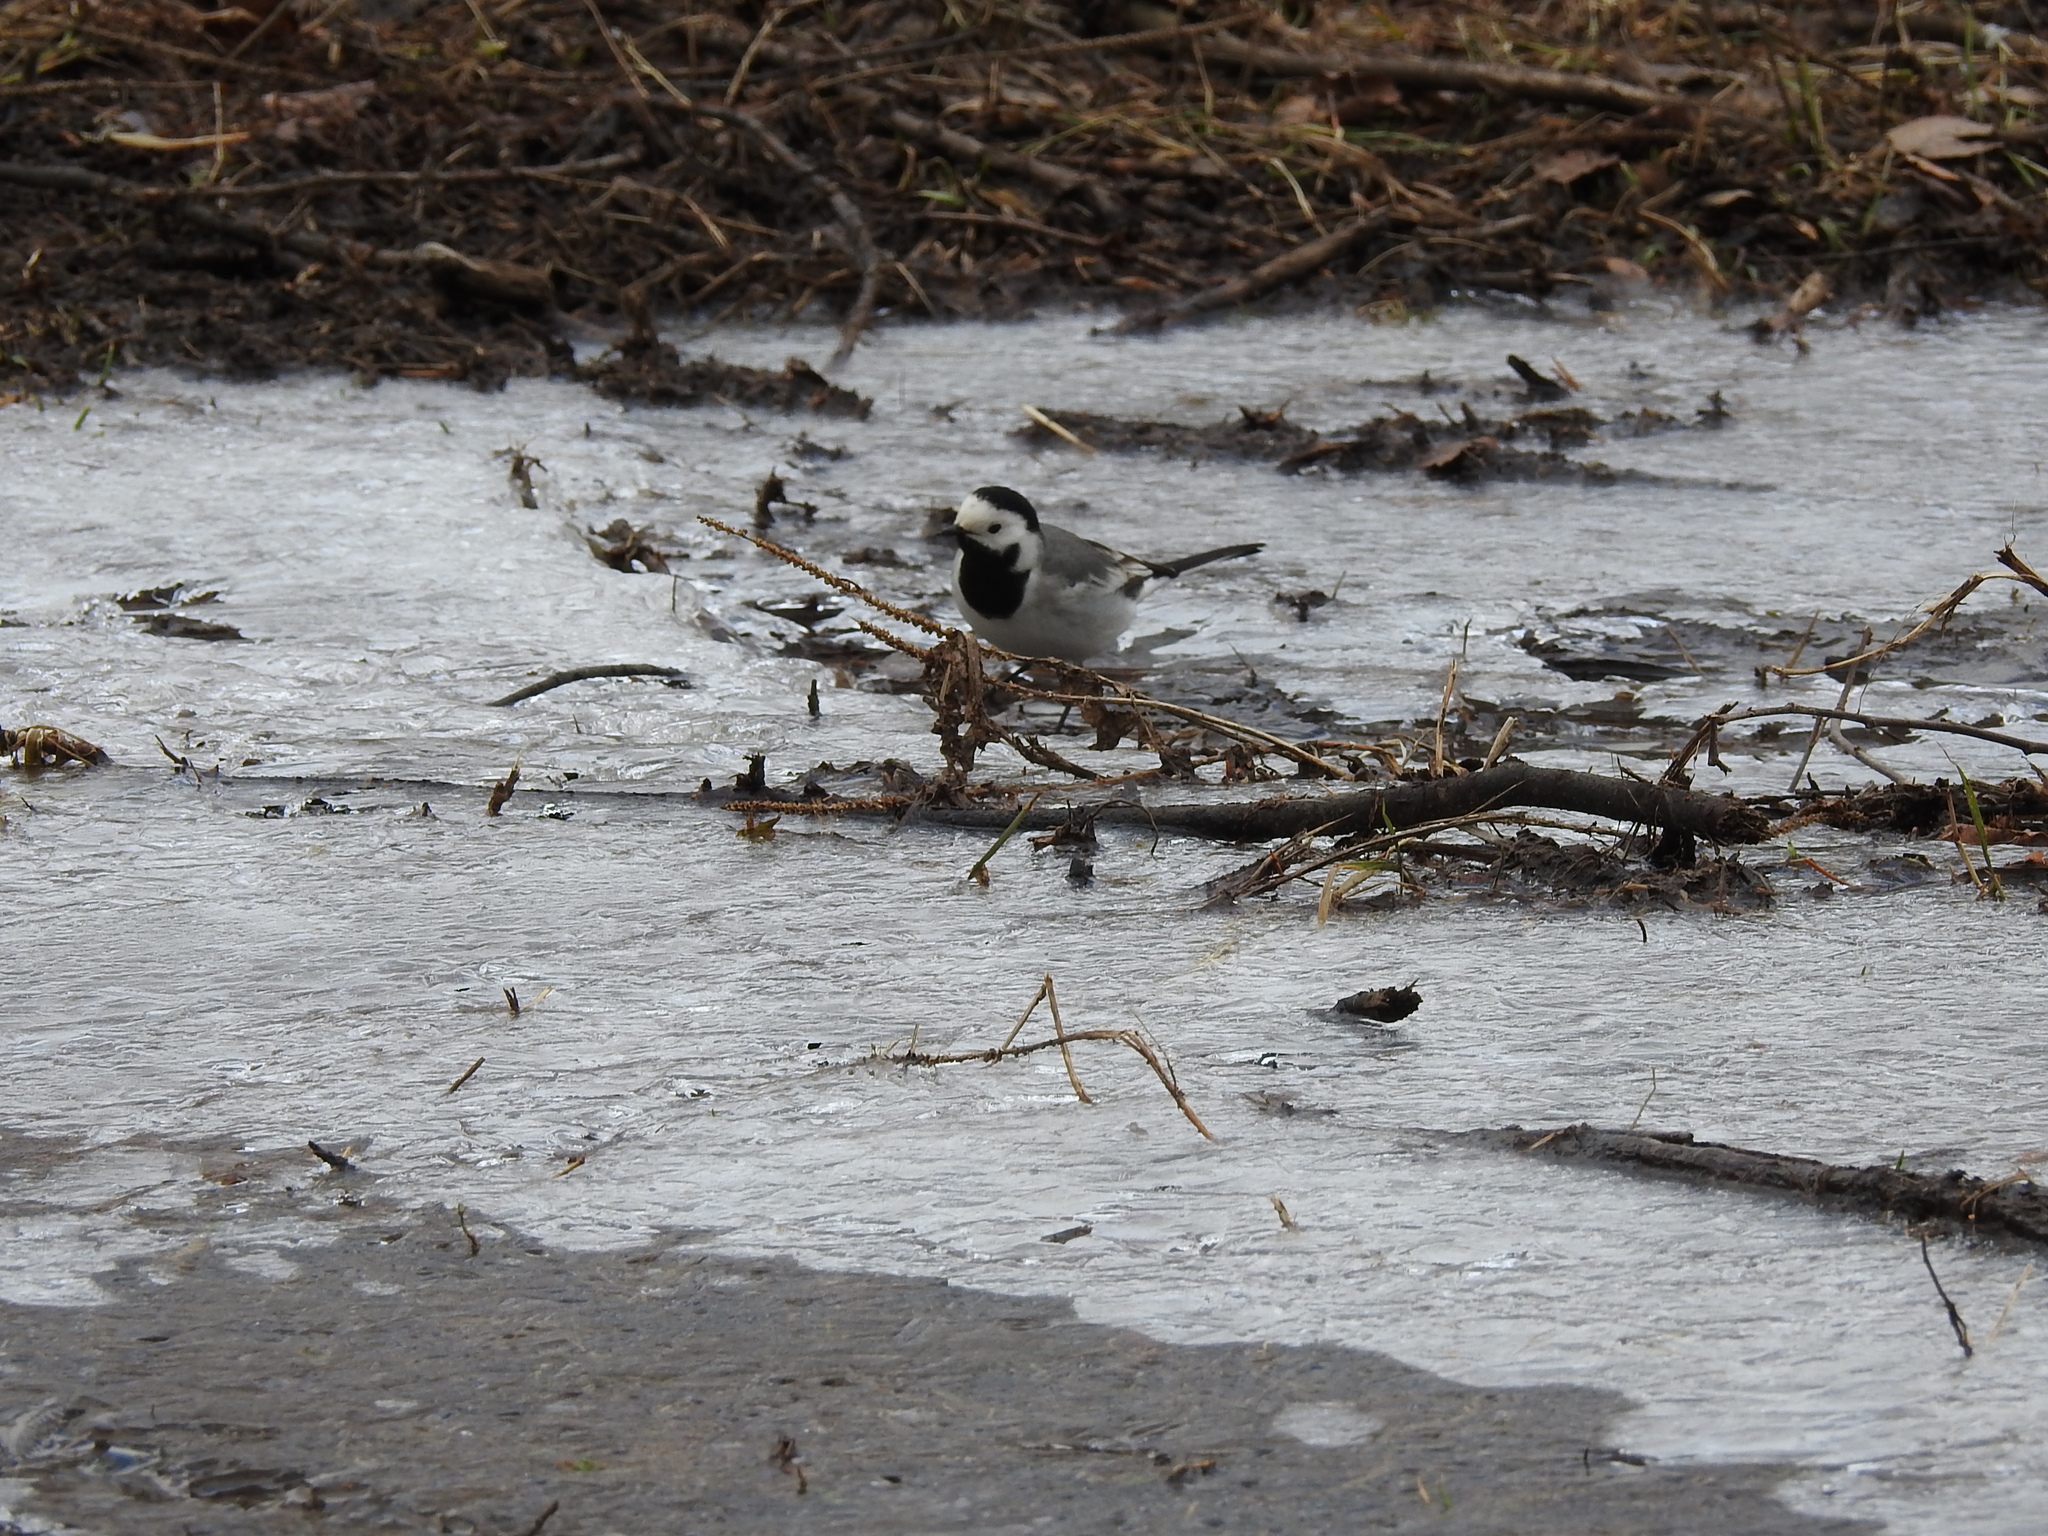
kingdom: Animalia
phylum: Chordata
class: Aves
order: Passeriformes
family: Motacillidae
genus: Motacilla
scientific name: Motacilla alba
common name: White wagtail
